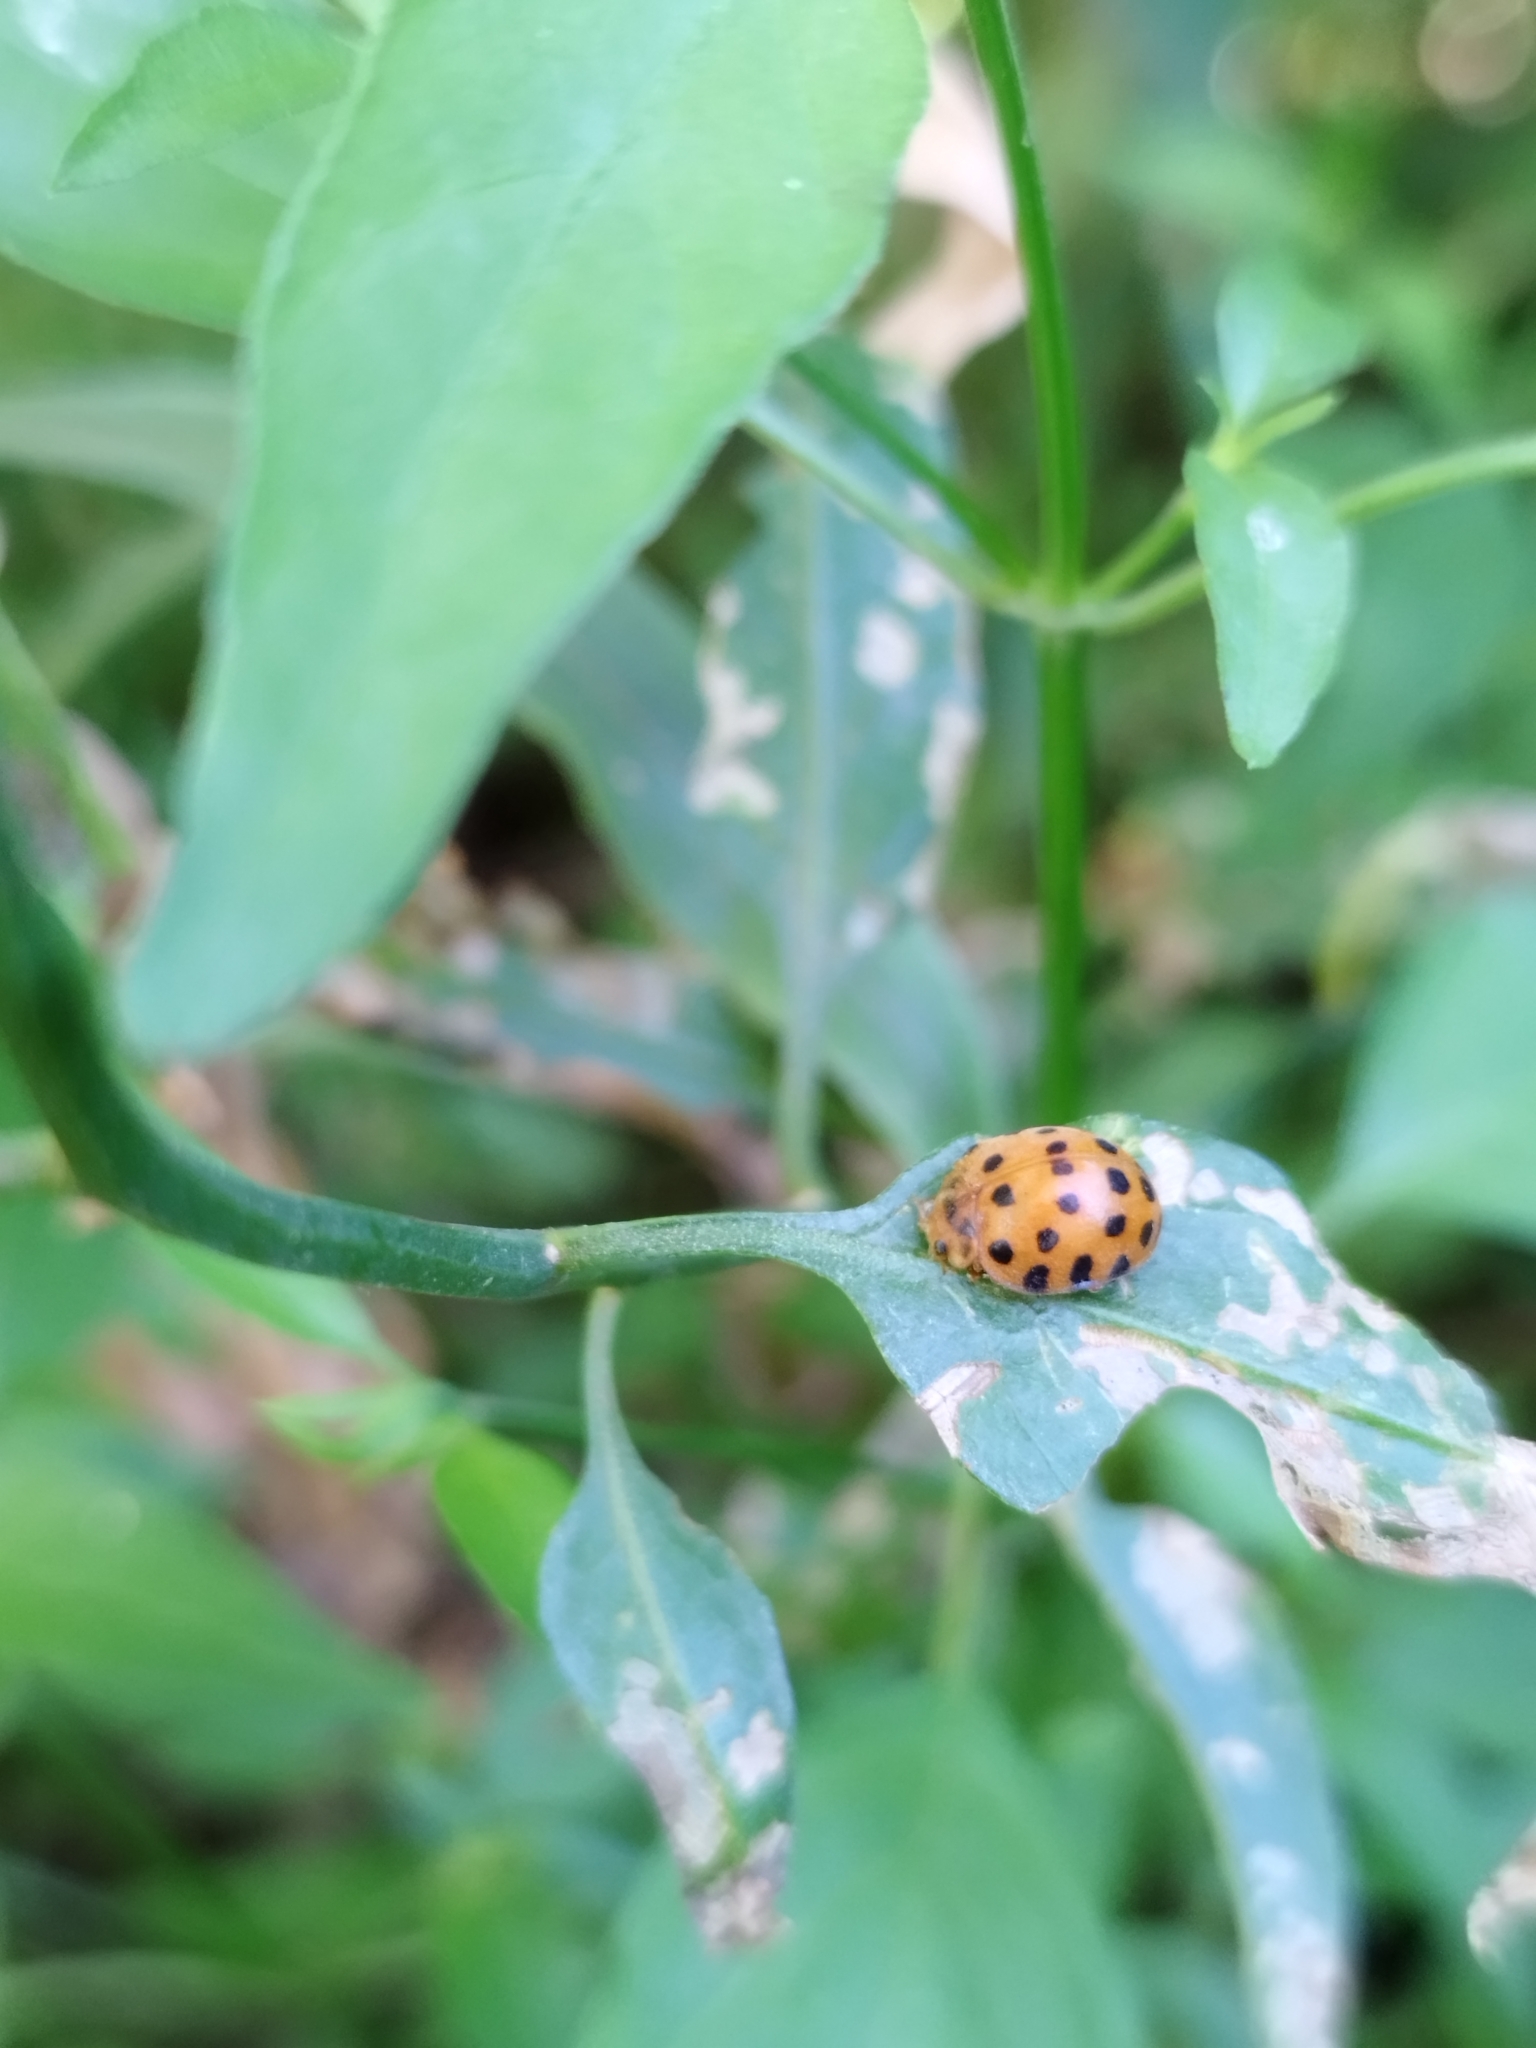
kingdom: Animalia
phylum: Arthropoda
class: Insecta
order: Coleoptera
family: Coccinellidae
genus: Henosepilachna
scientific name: Henosepilachna vigintioctopunctata
